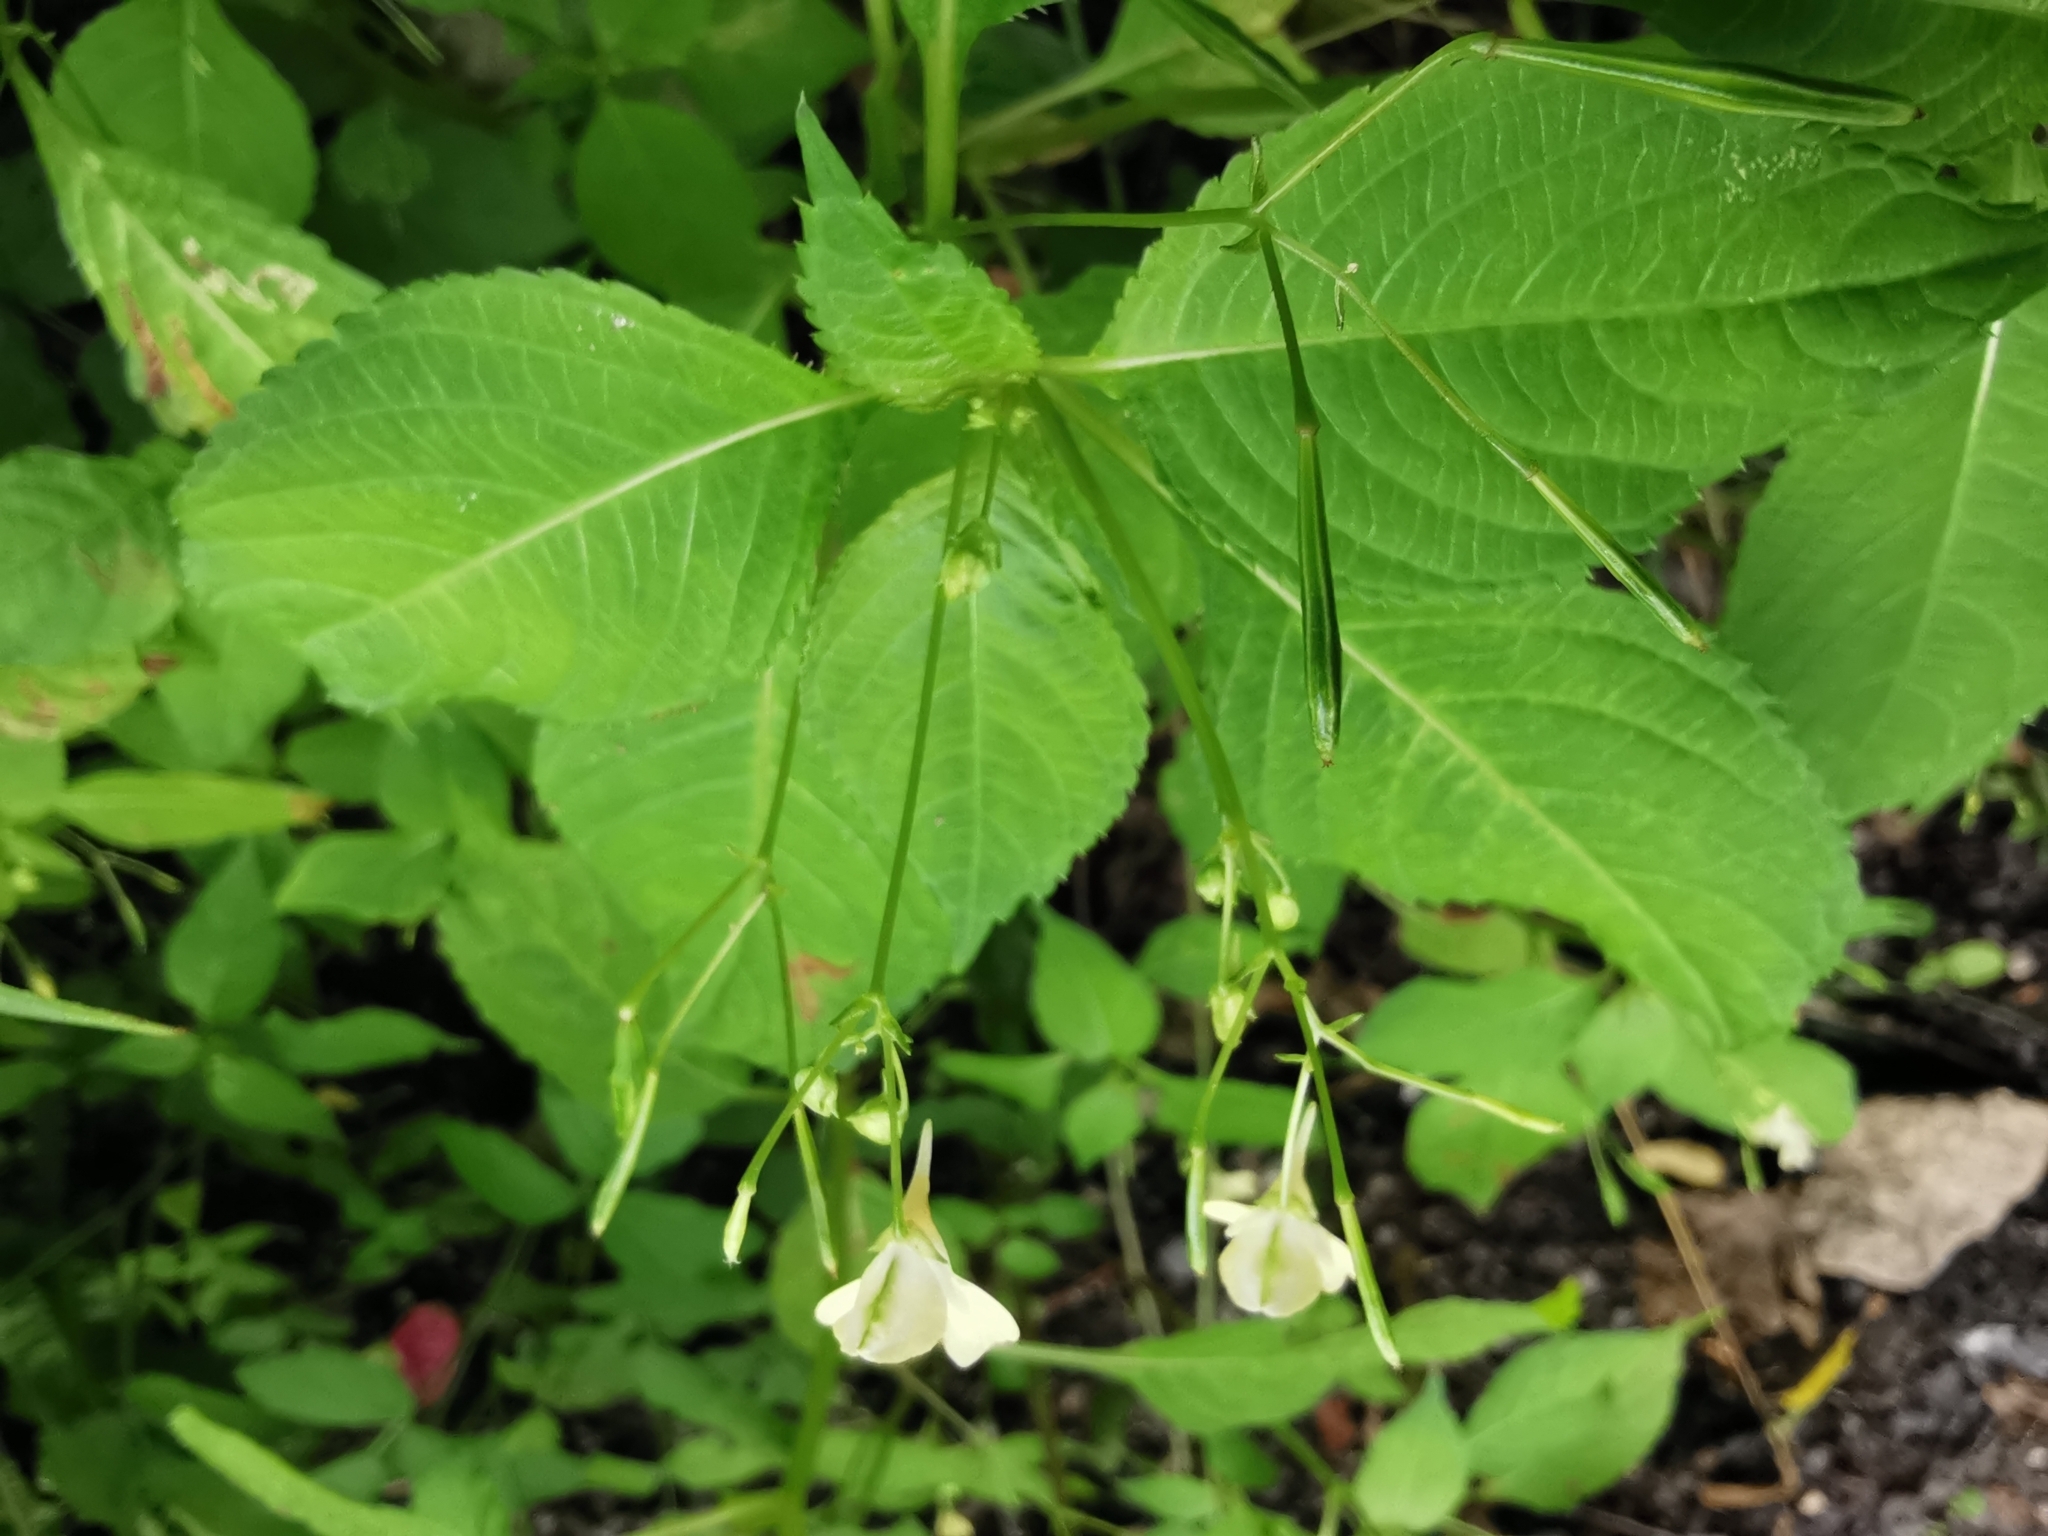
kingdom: Plantae
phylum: Tracheophyta
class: Magnoliopsida
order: Ericales
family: Balsaminaceae
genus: Impatiens
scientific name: Impatiens parviflora
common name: Small balsam
